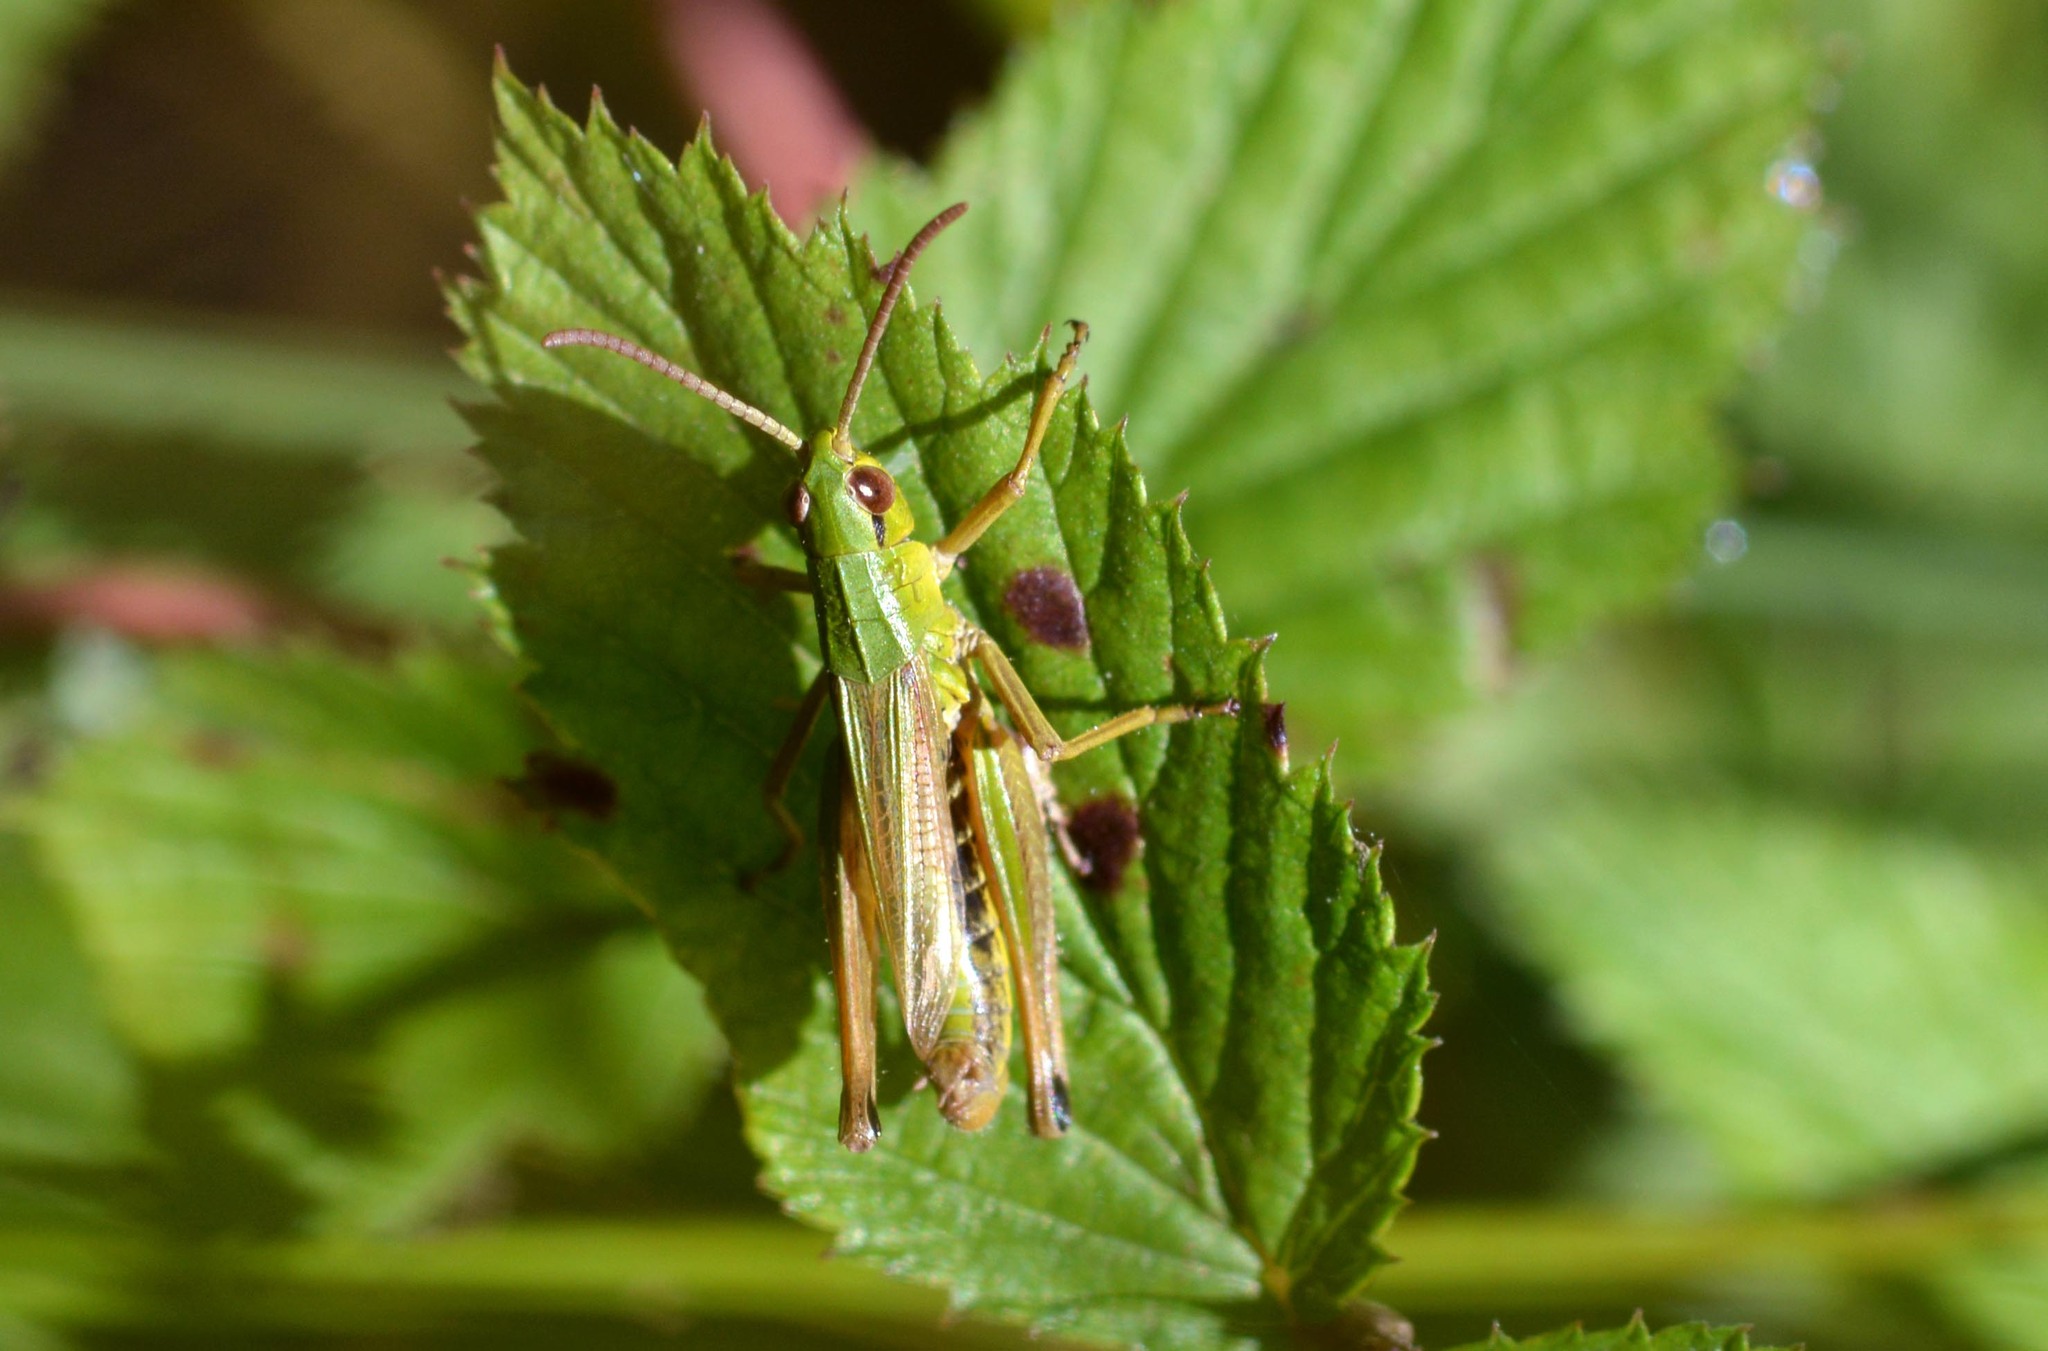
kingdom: Animalia
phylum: Arthropoda
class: Insecta
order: Orthoptera
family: Acrididae
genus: Pseudochorthippus
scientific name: Pseudochorthippus parallelus
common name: Meadow grasshopper
